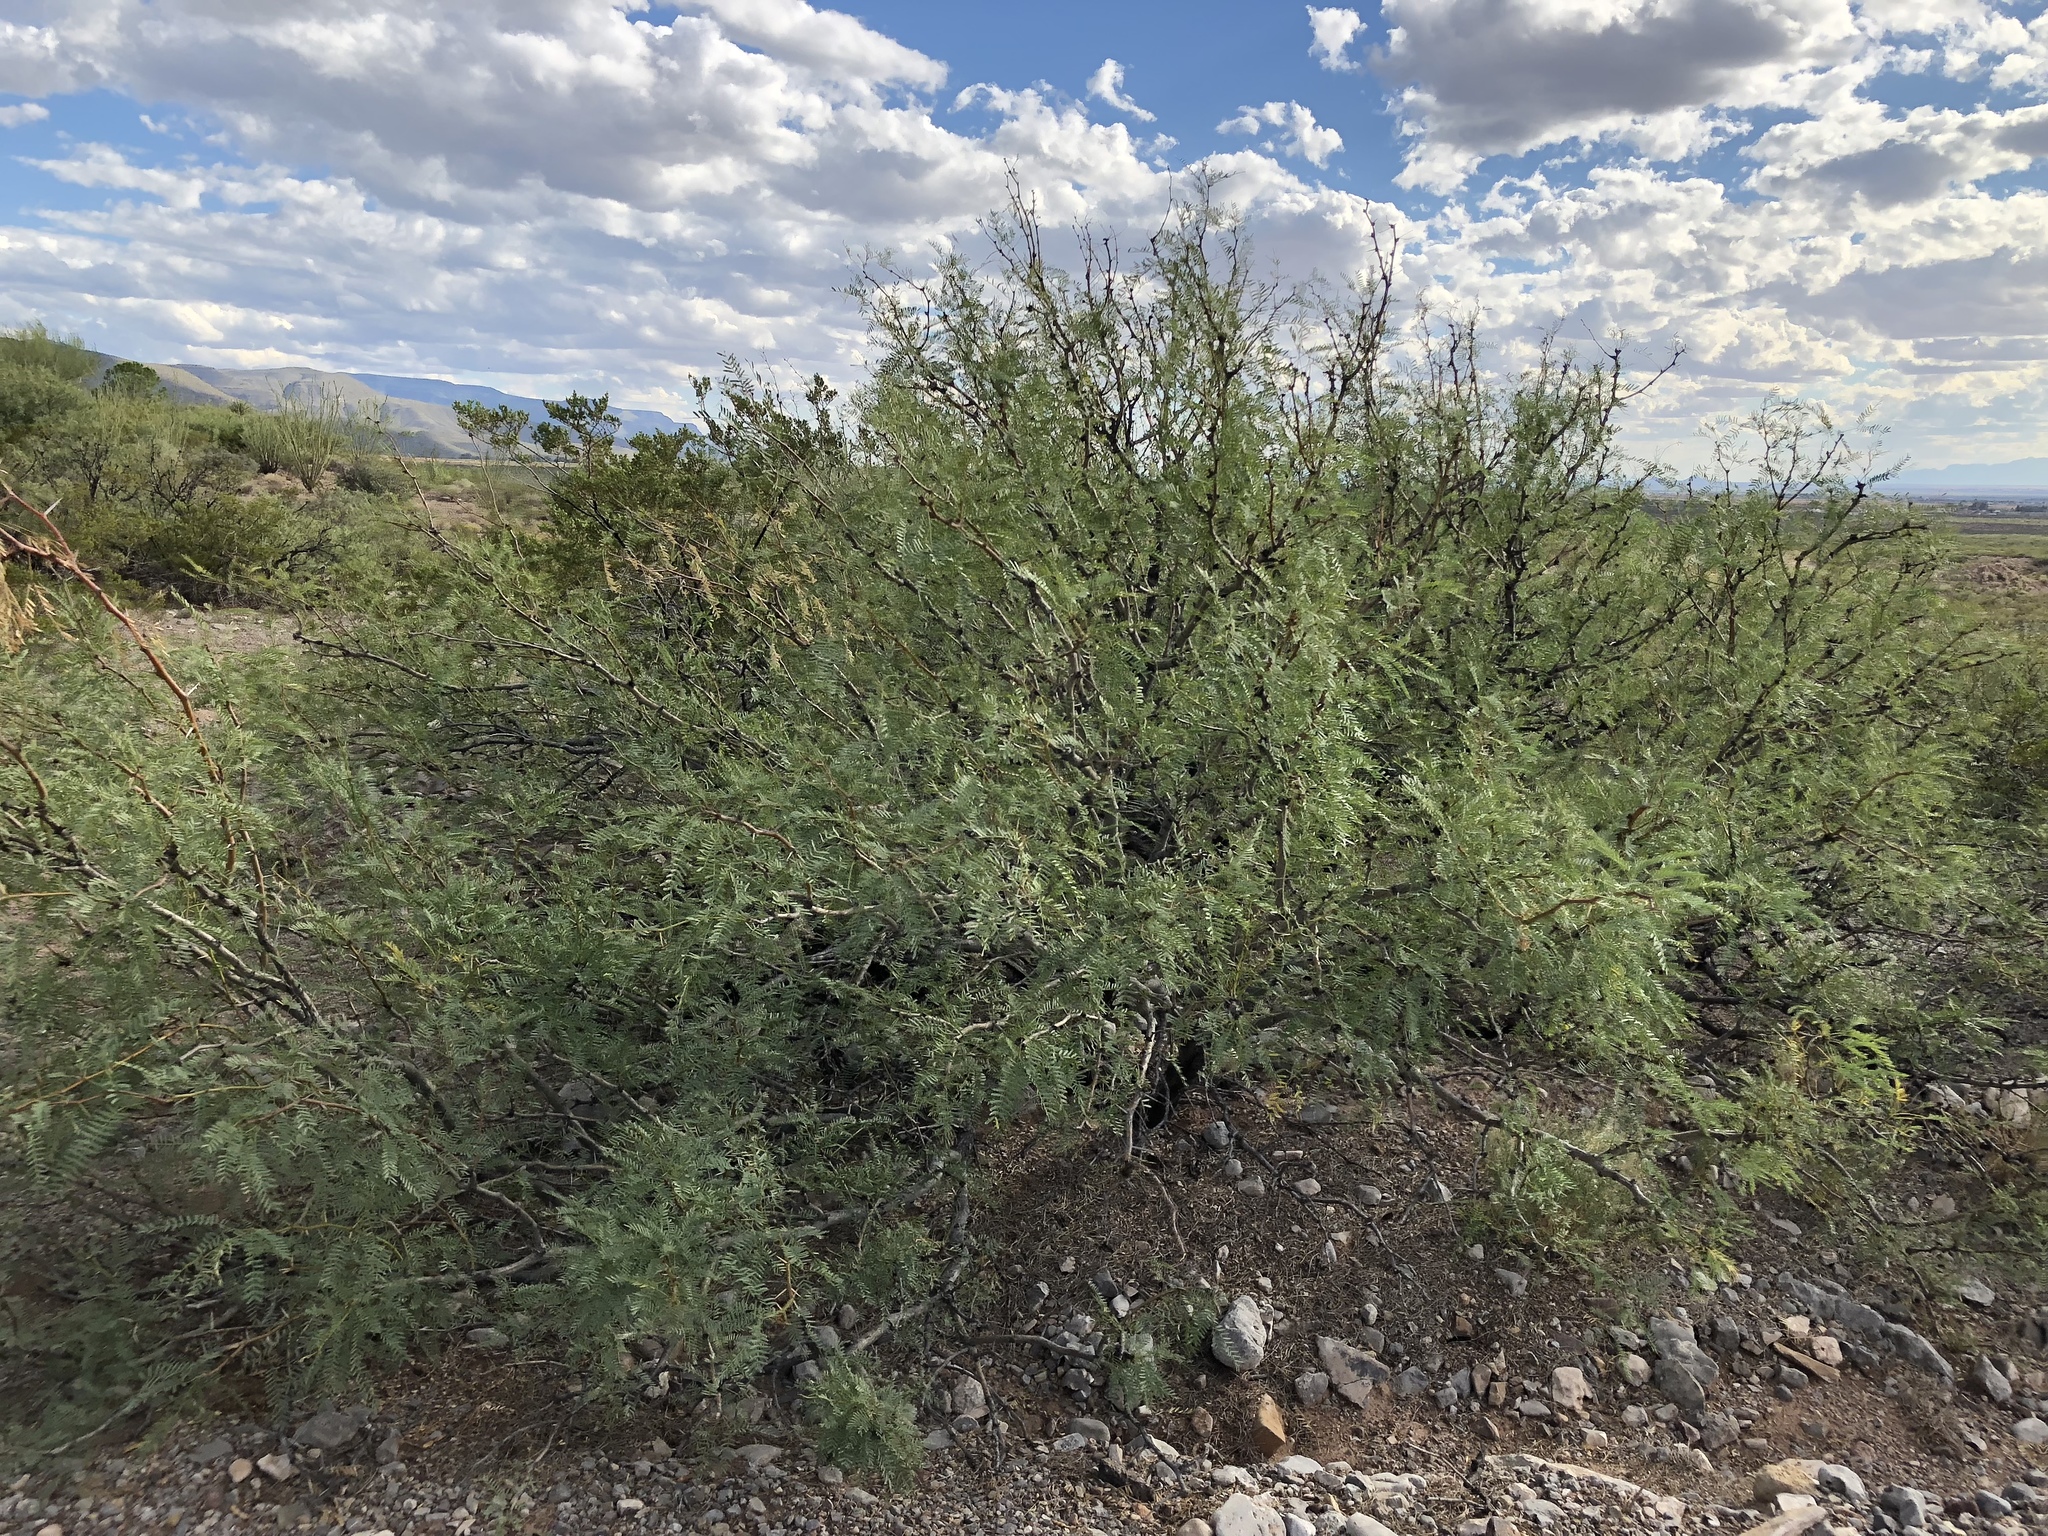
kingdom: Plantae
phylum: Tracheophyta
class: Magnoliopsida
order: Fabales
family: Fabaceae
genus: Prosopis
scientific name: Prosopis glandulosa
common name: Honey mesquite
